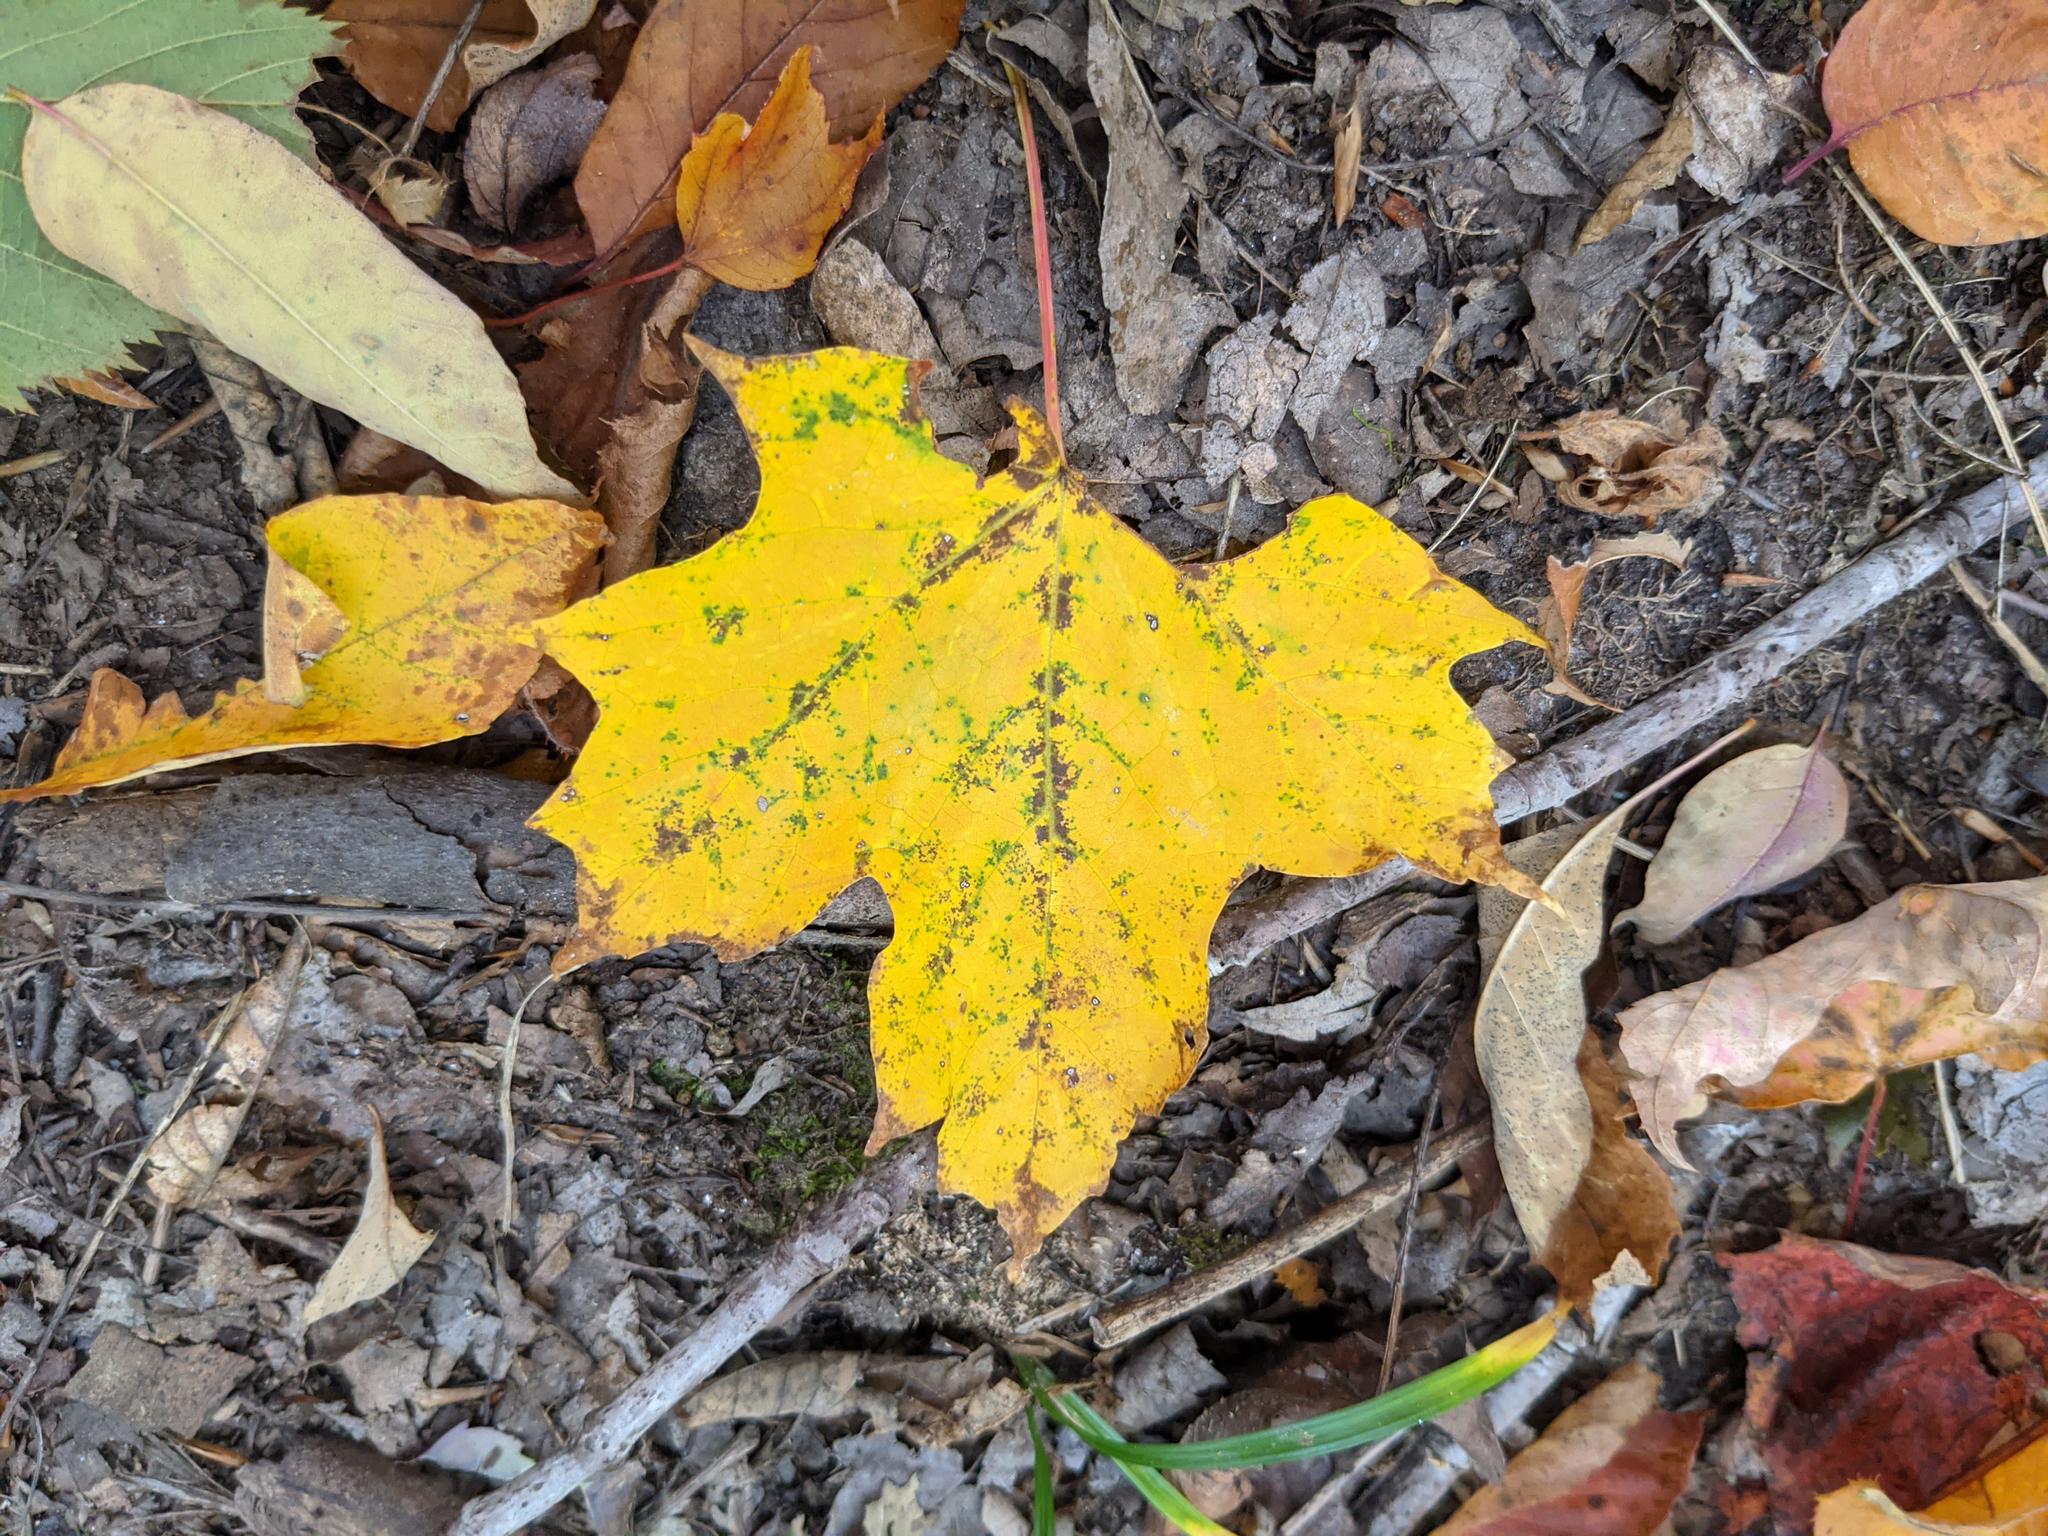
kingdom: Plantae
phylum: Tracheophyta
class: Magnoliopsida
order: Sapindales
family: Sapindaceae
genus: Acer
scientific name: Acer saccharum
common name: Sugar maple
